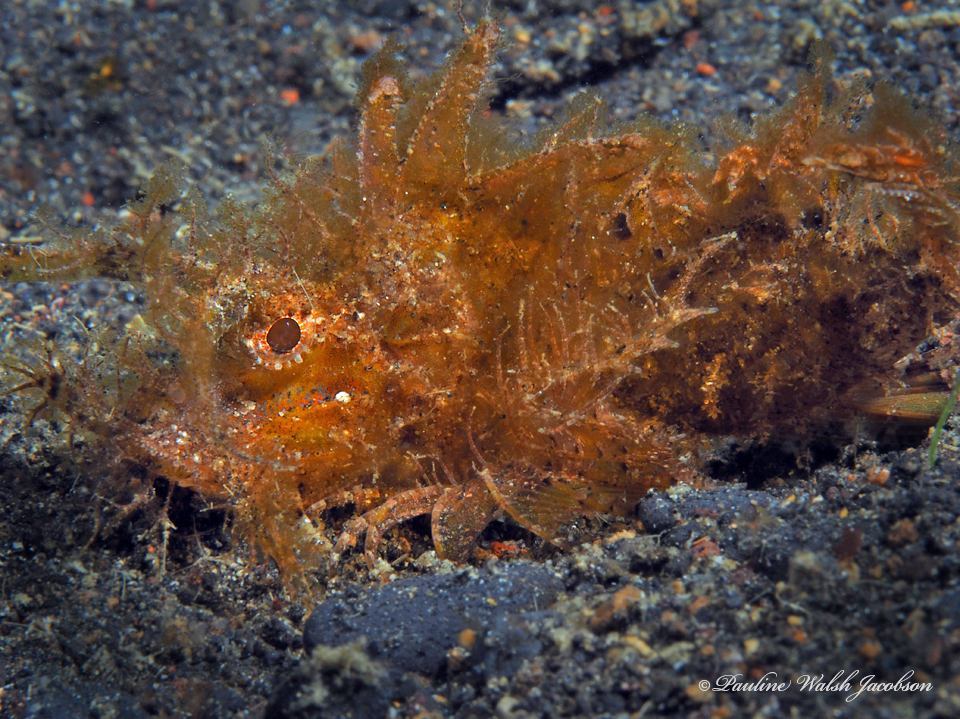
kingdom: Animalia
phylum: Chordata
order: Scorpaeniformes
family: Scorpaenidae
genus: Pteroidichthys
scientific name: Pteroidichthys amboinensis
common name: Ambon scorpionfish
